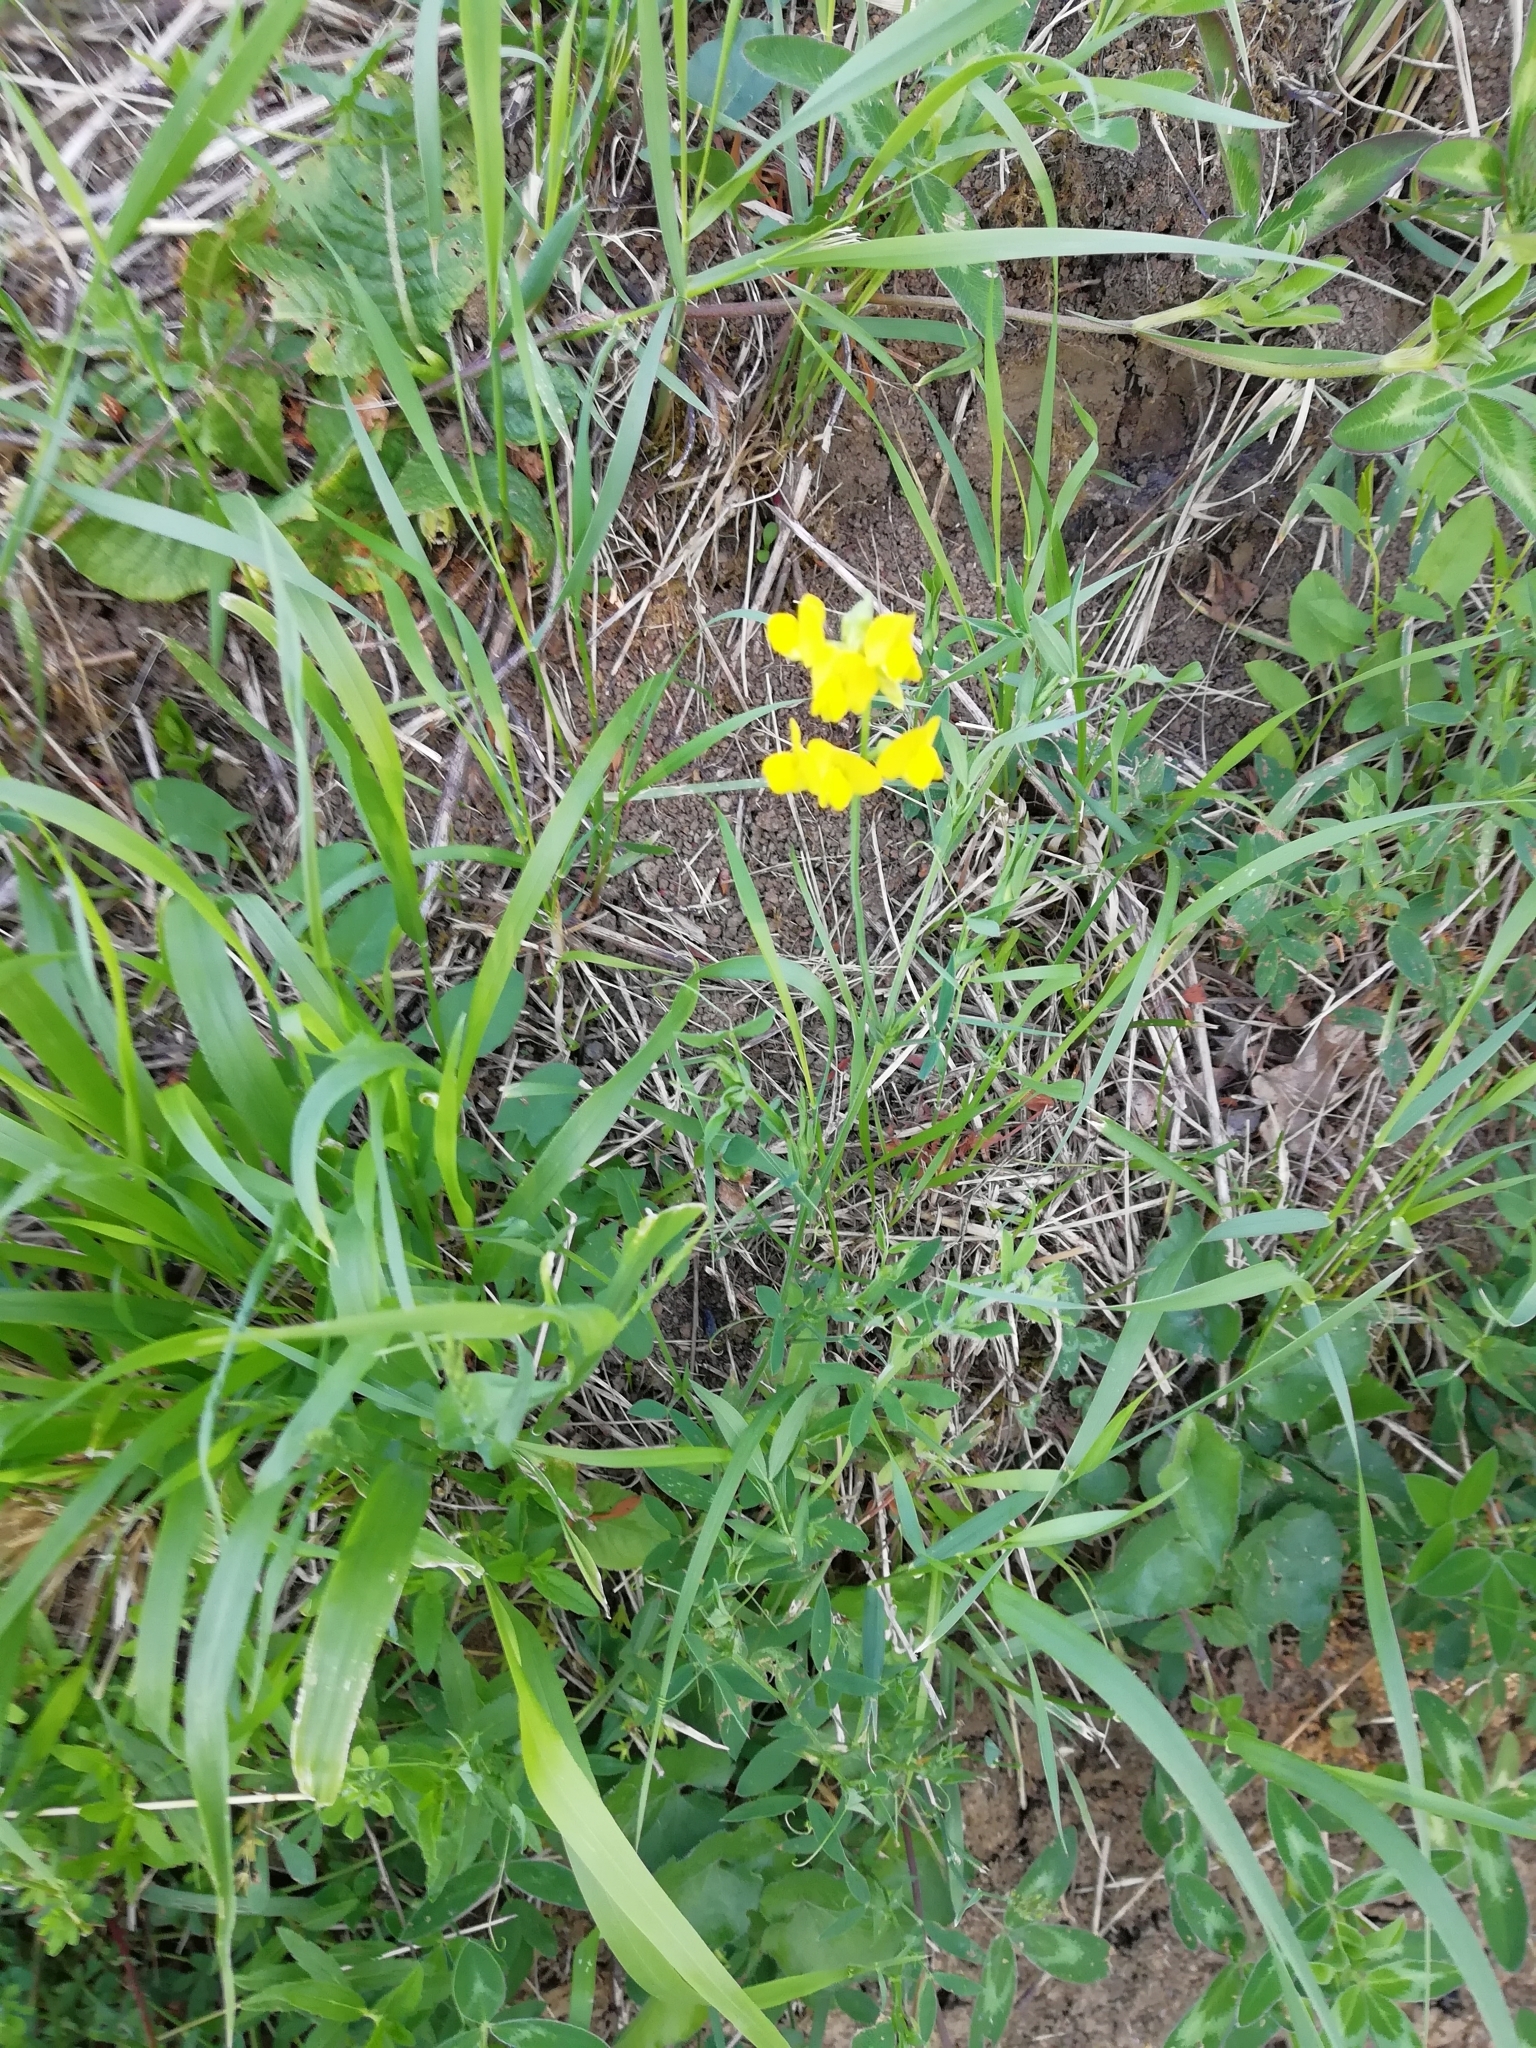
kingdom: Plantae
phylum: Tracheophyta
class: Magnoliopsida
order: Fabales
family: Fabaceae
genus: Lathyrus
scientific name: Lathyrus pratensis
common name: Meadow vetchling
